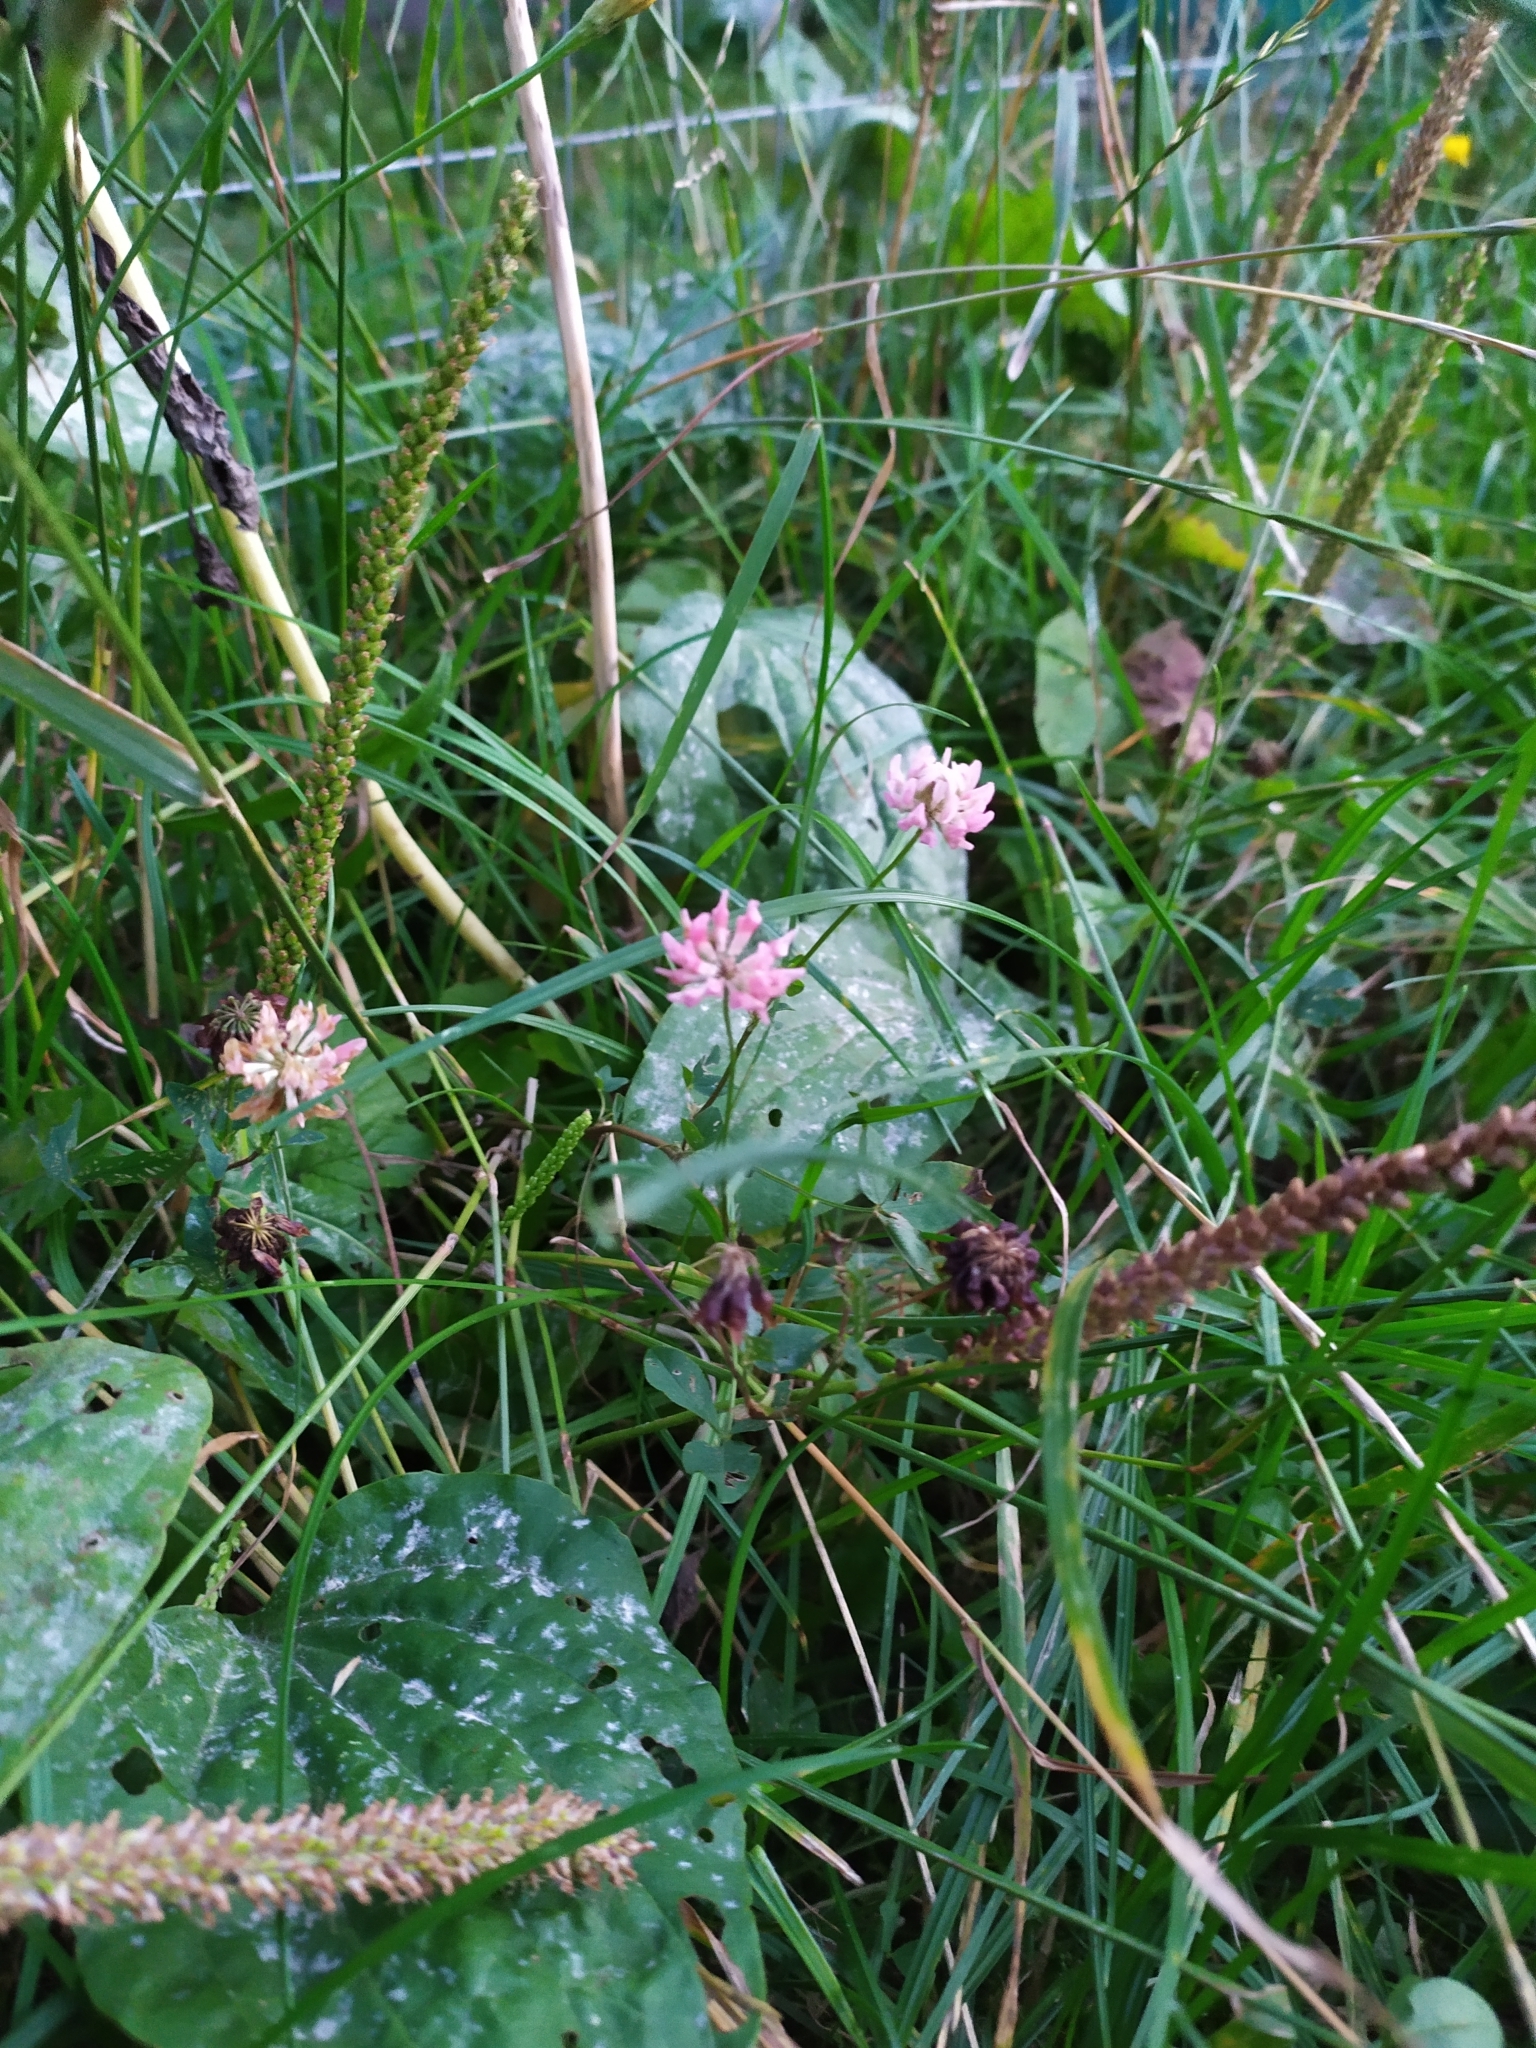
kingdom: Plantae
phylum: Tracheophyta
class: Magnoliopsida
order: Fabales
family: Fabaceae
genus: Trifolium
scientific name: Trifolium hybridum
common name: Alsike clover
